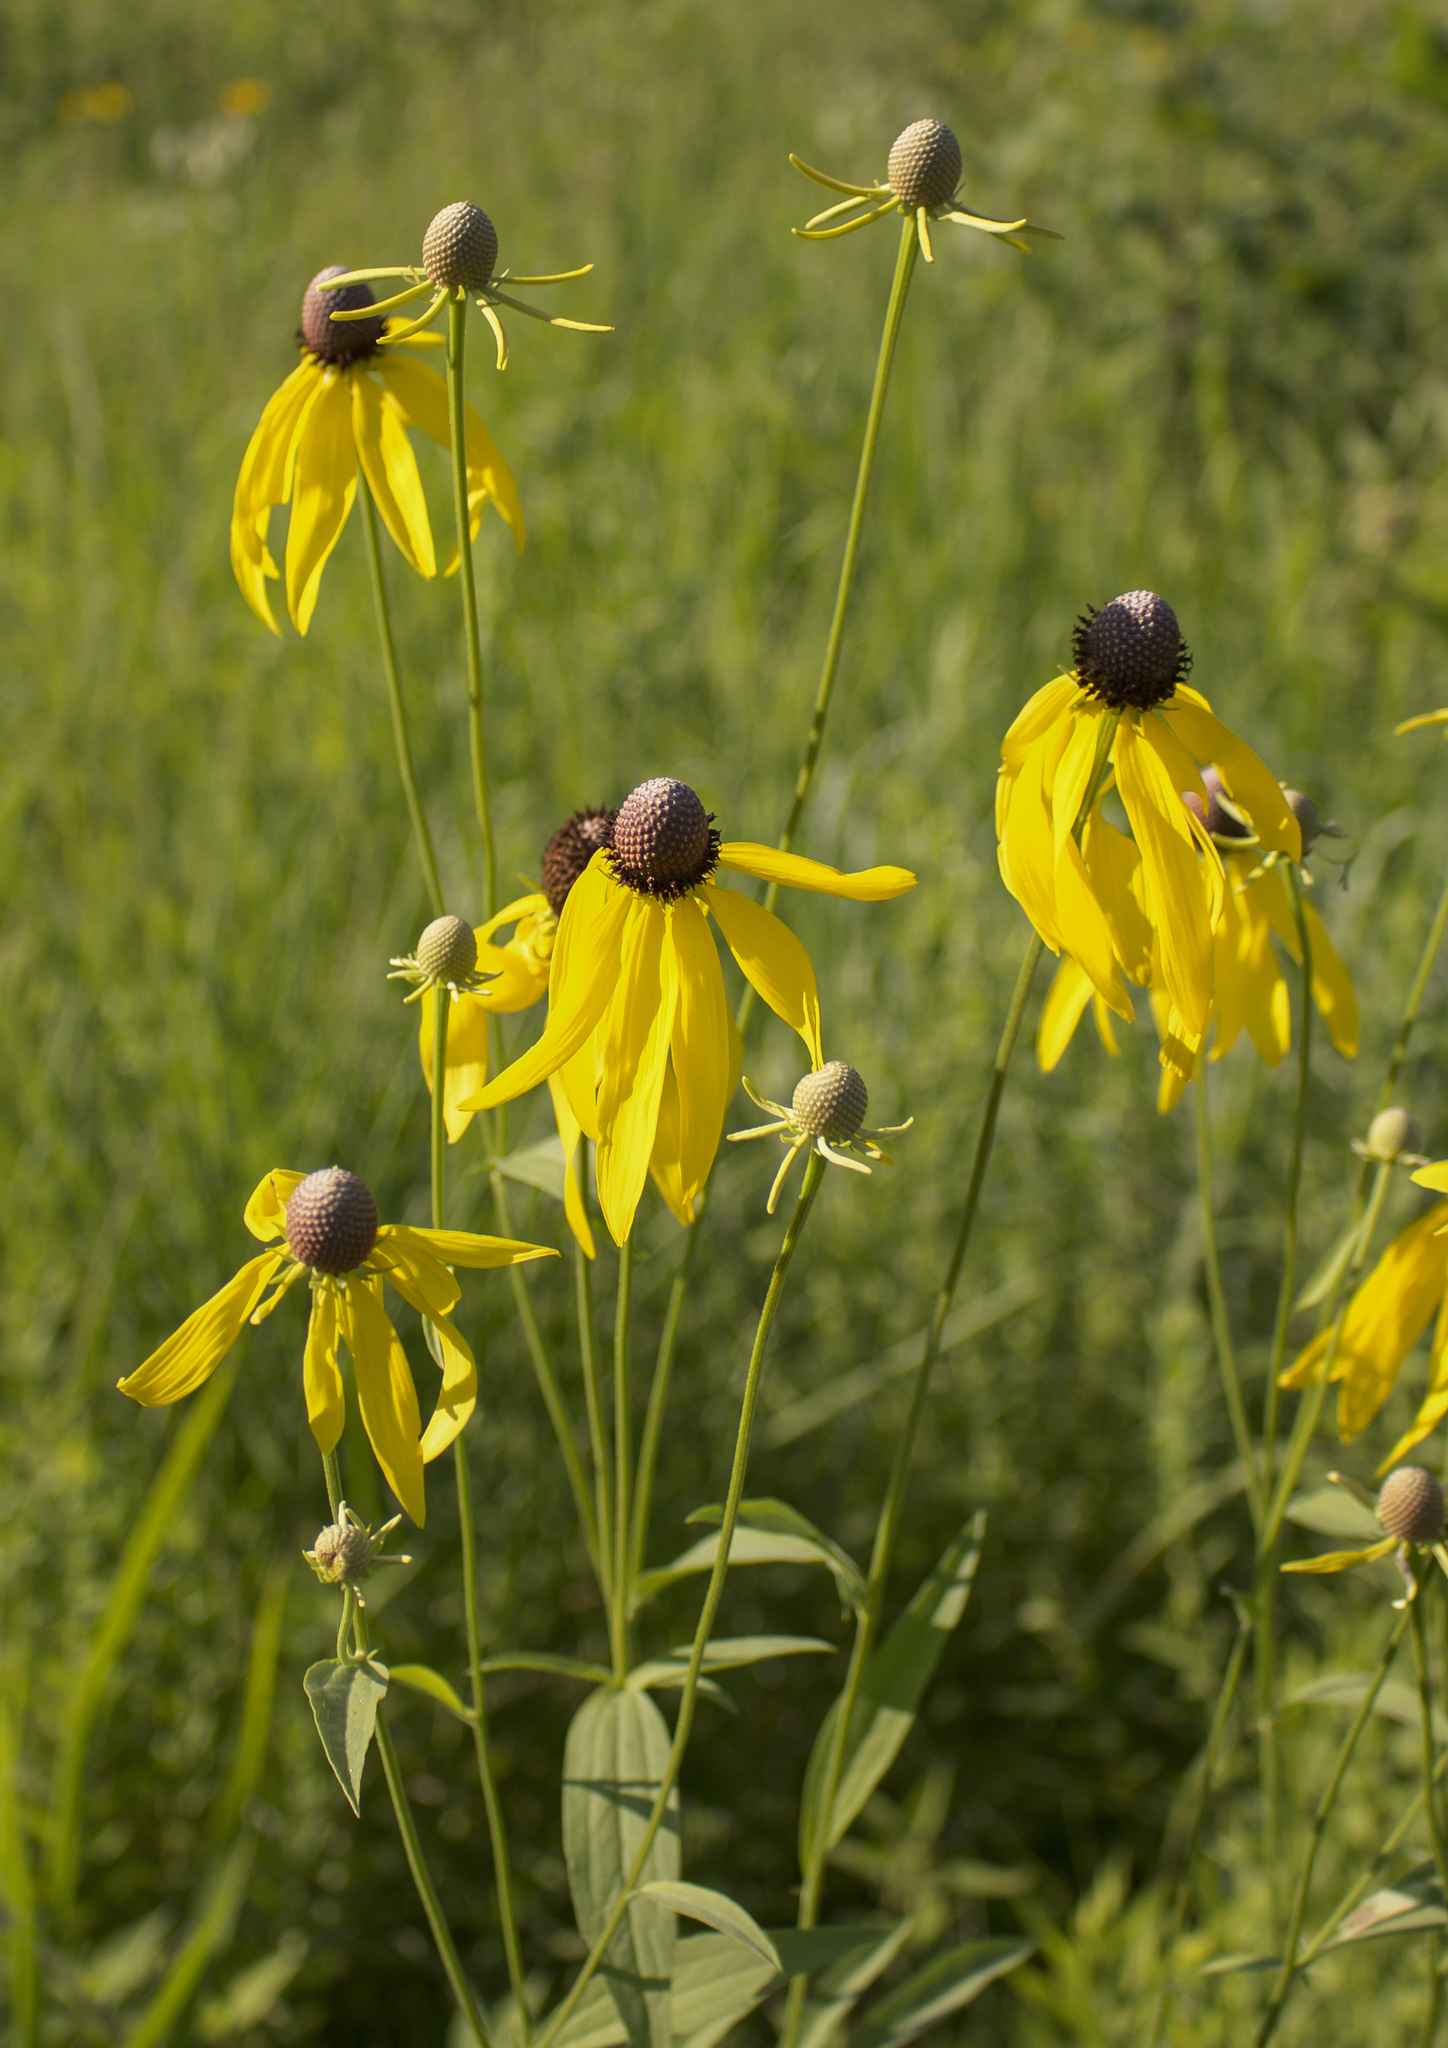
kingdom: Plantae
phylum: Tracheophyta
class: Magnoliopsida
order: Asterales
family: Asteraceae
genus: Ratibida
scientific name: Ratibida pinnata
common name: Drooping prairie-coneflower
